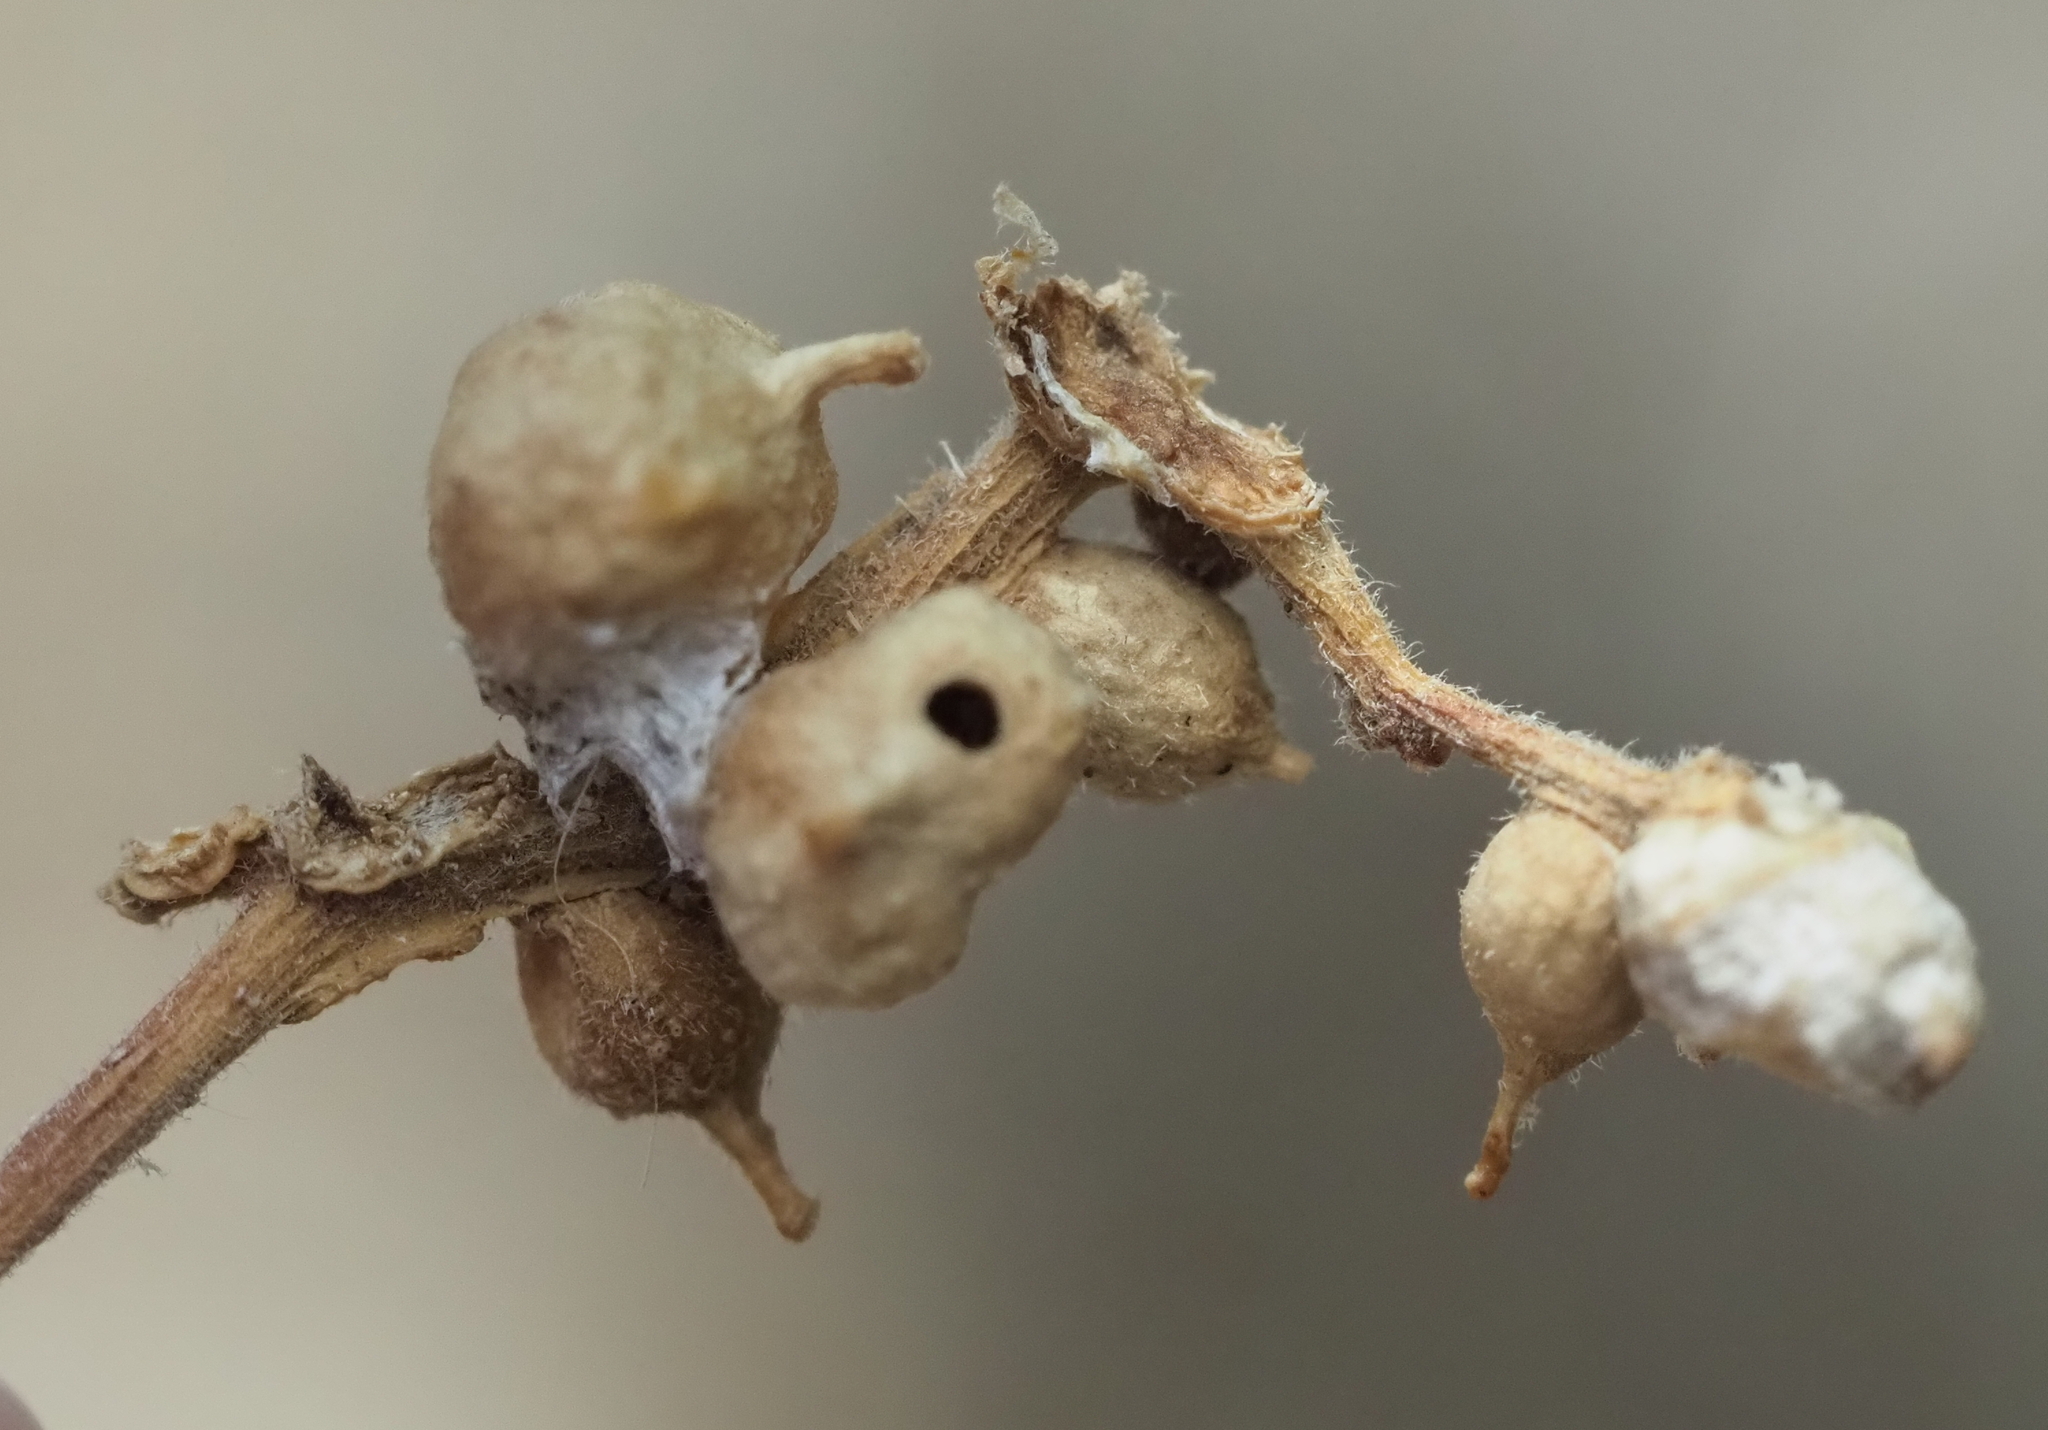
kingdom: Animalia
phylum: Arthropoda
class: Insecta
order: Diptera
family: Cecidomyiidae
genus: Celticecis
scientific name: Celticecis connata
